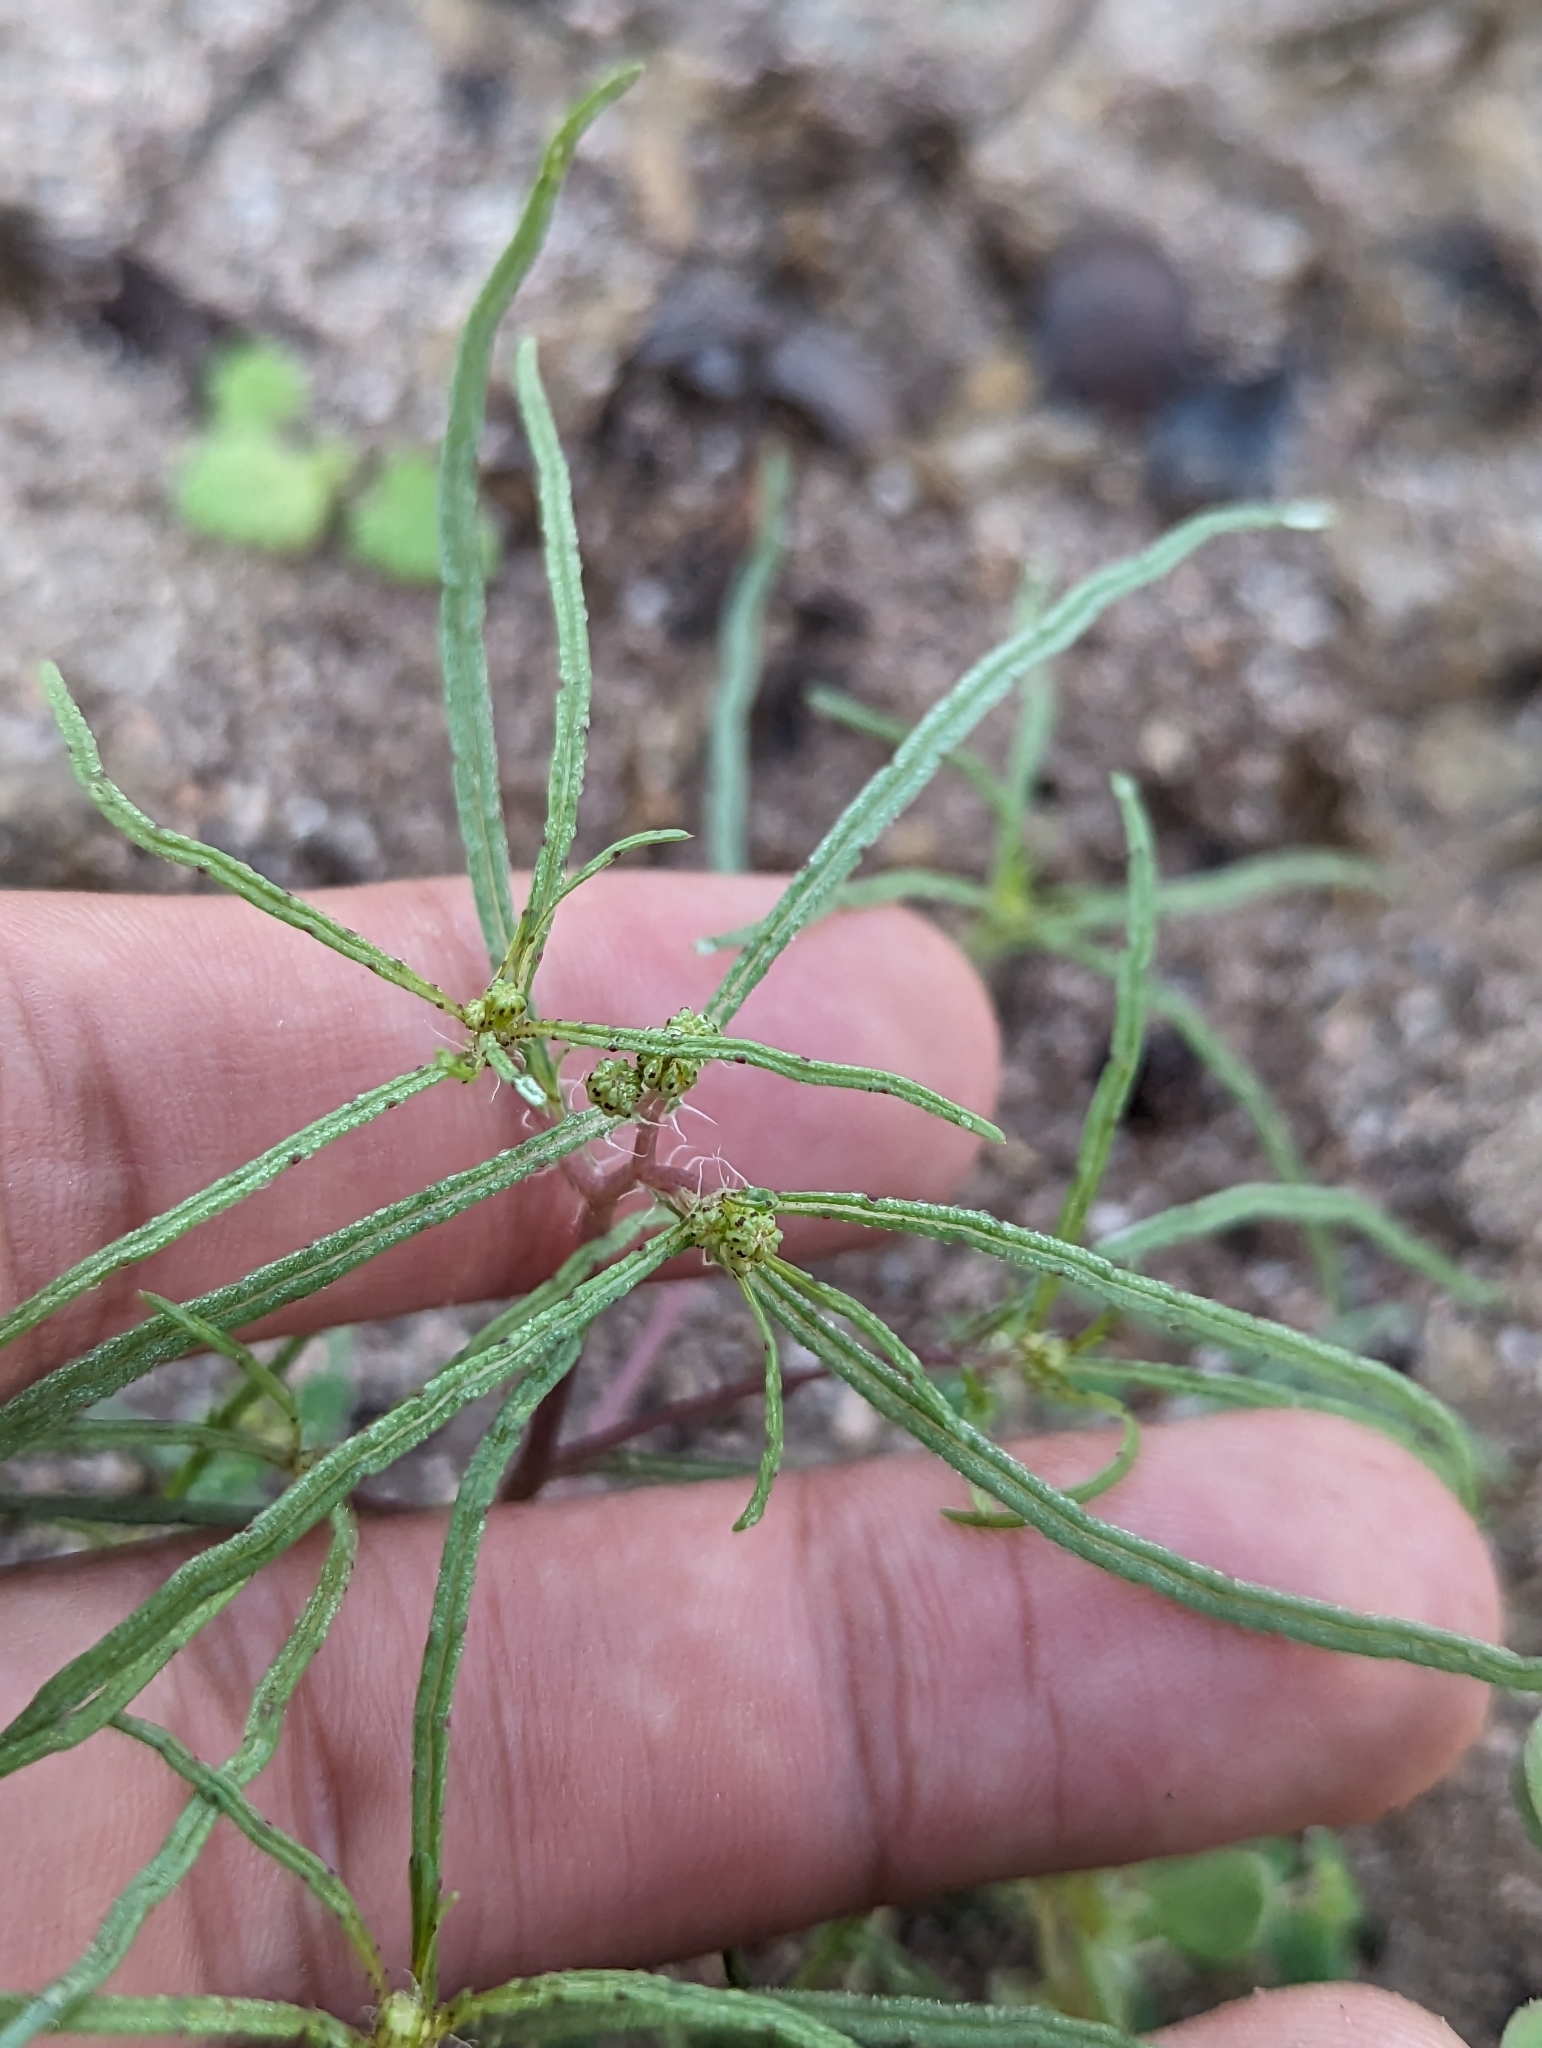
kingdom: Plantae
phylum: Tracheophyta
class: Magnoliopsida
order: Asterales
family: Asteraceae
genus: Pectis
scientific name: Pectis papposa
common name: Many-bristle chinchweed
